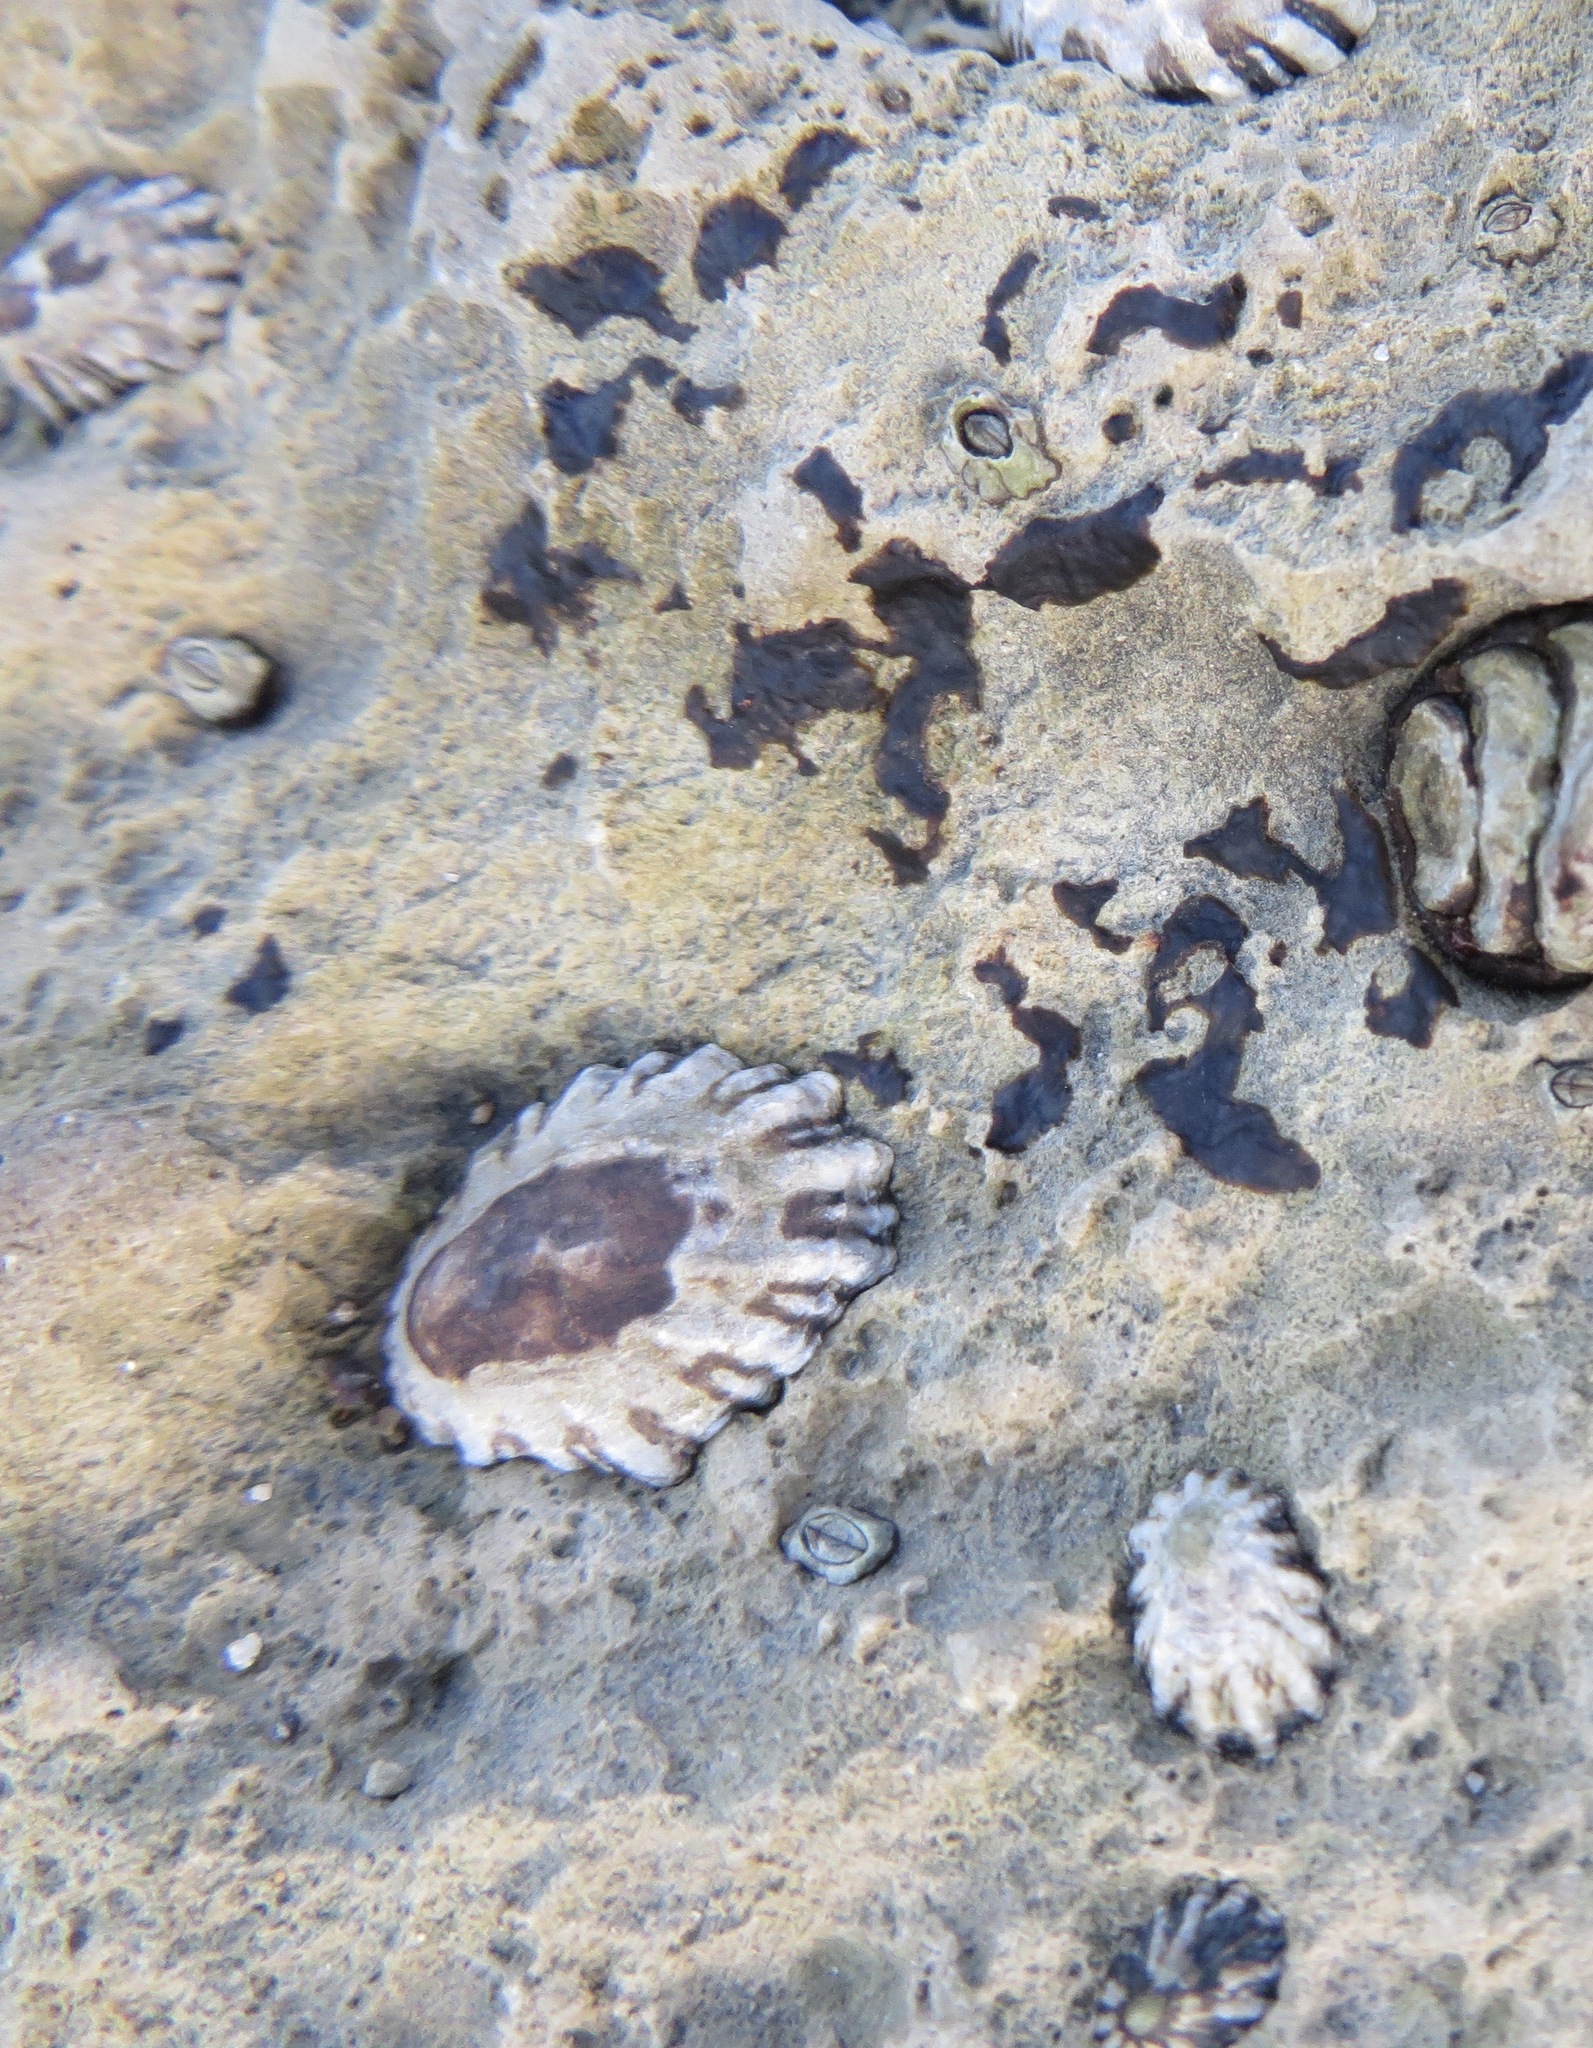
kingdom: Animalia
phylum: Mollusca
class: Gastropoda
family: Lottiidae
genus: Lottia
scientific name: Lottia scabra
